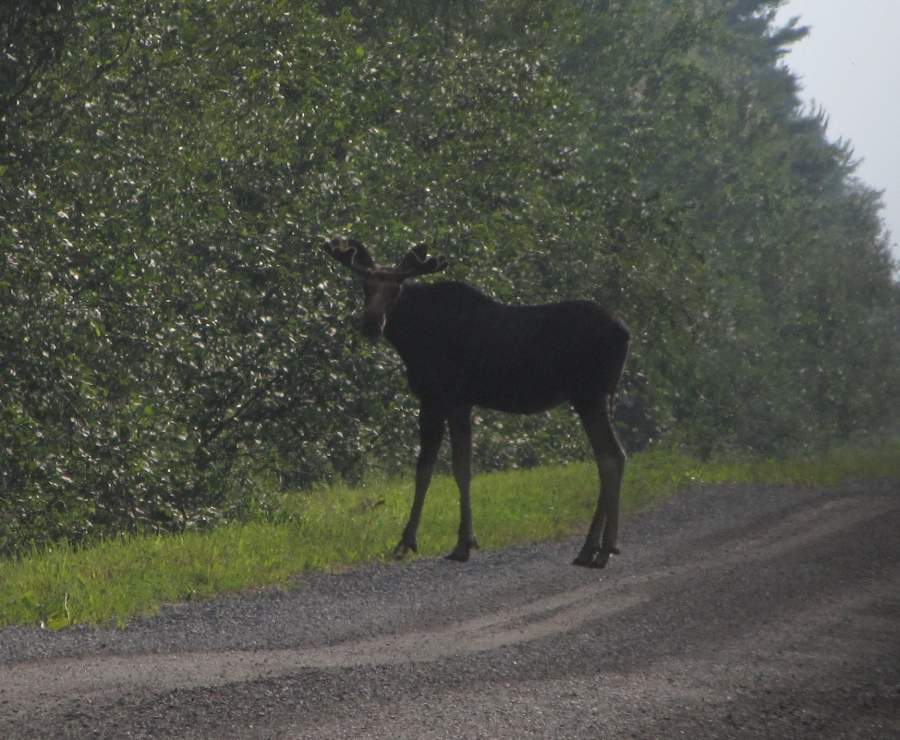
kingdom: Animalia
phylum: Chordata
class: Mammalia
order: Artiodactyla
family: Cervidae
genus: Alces
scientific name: Alces alces
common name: Moose
